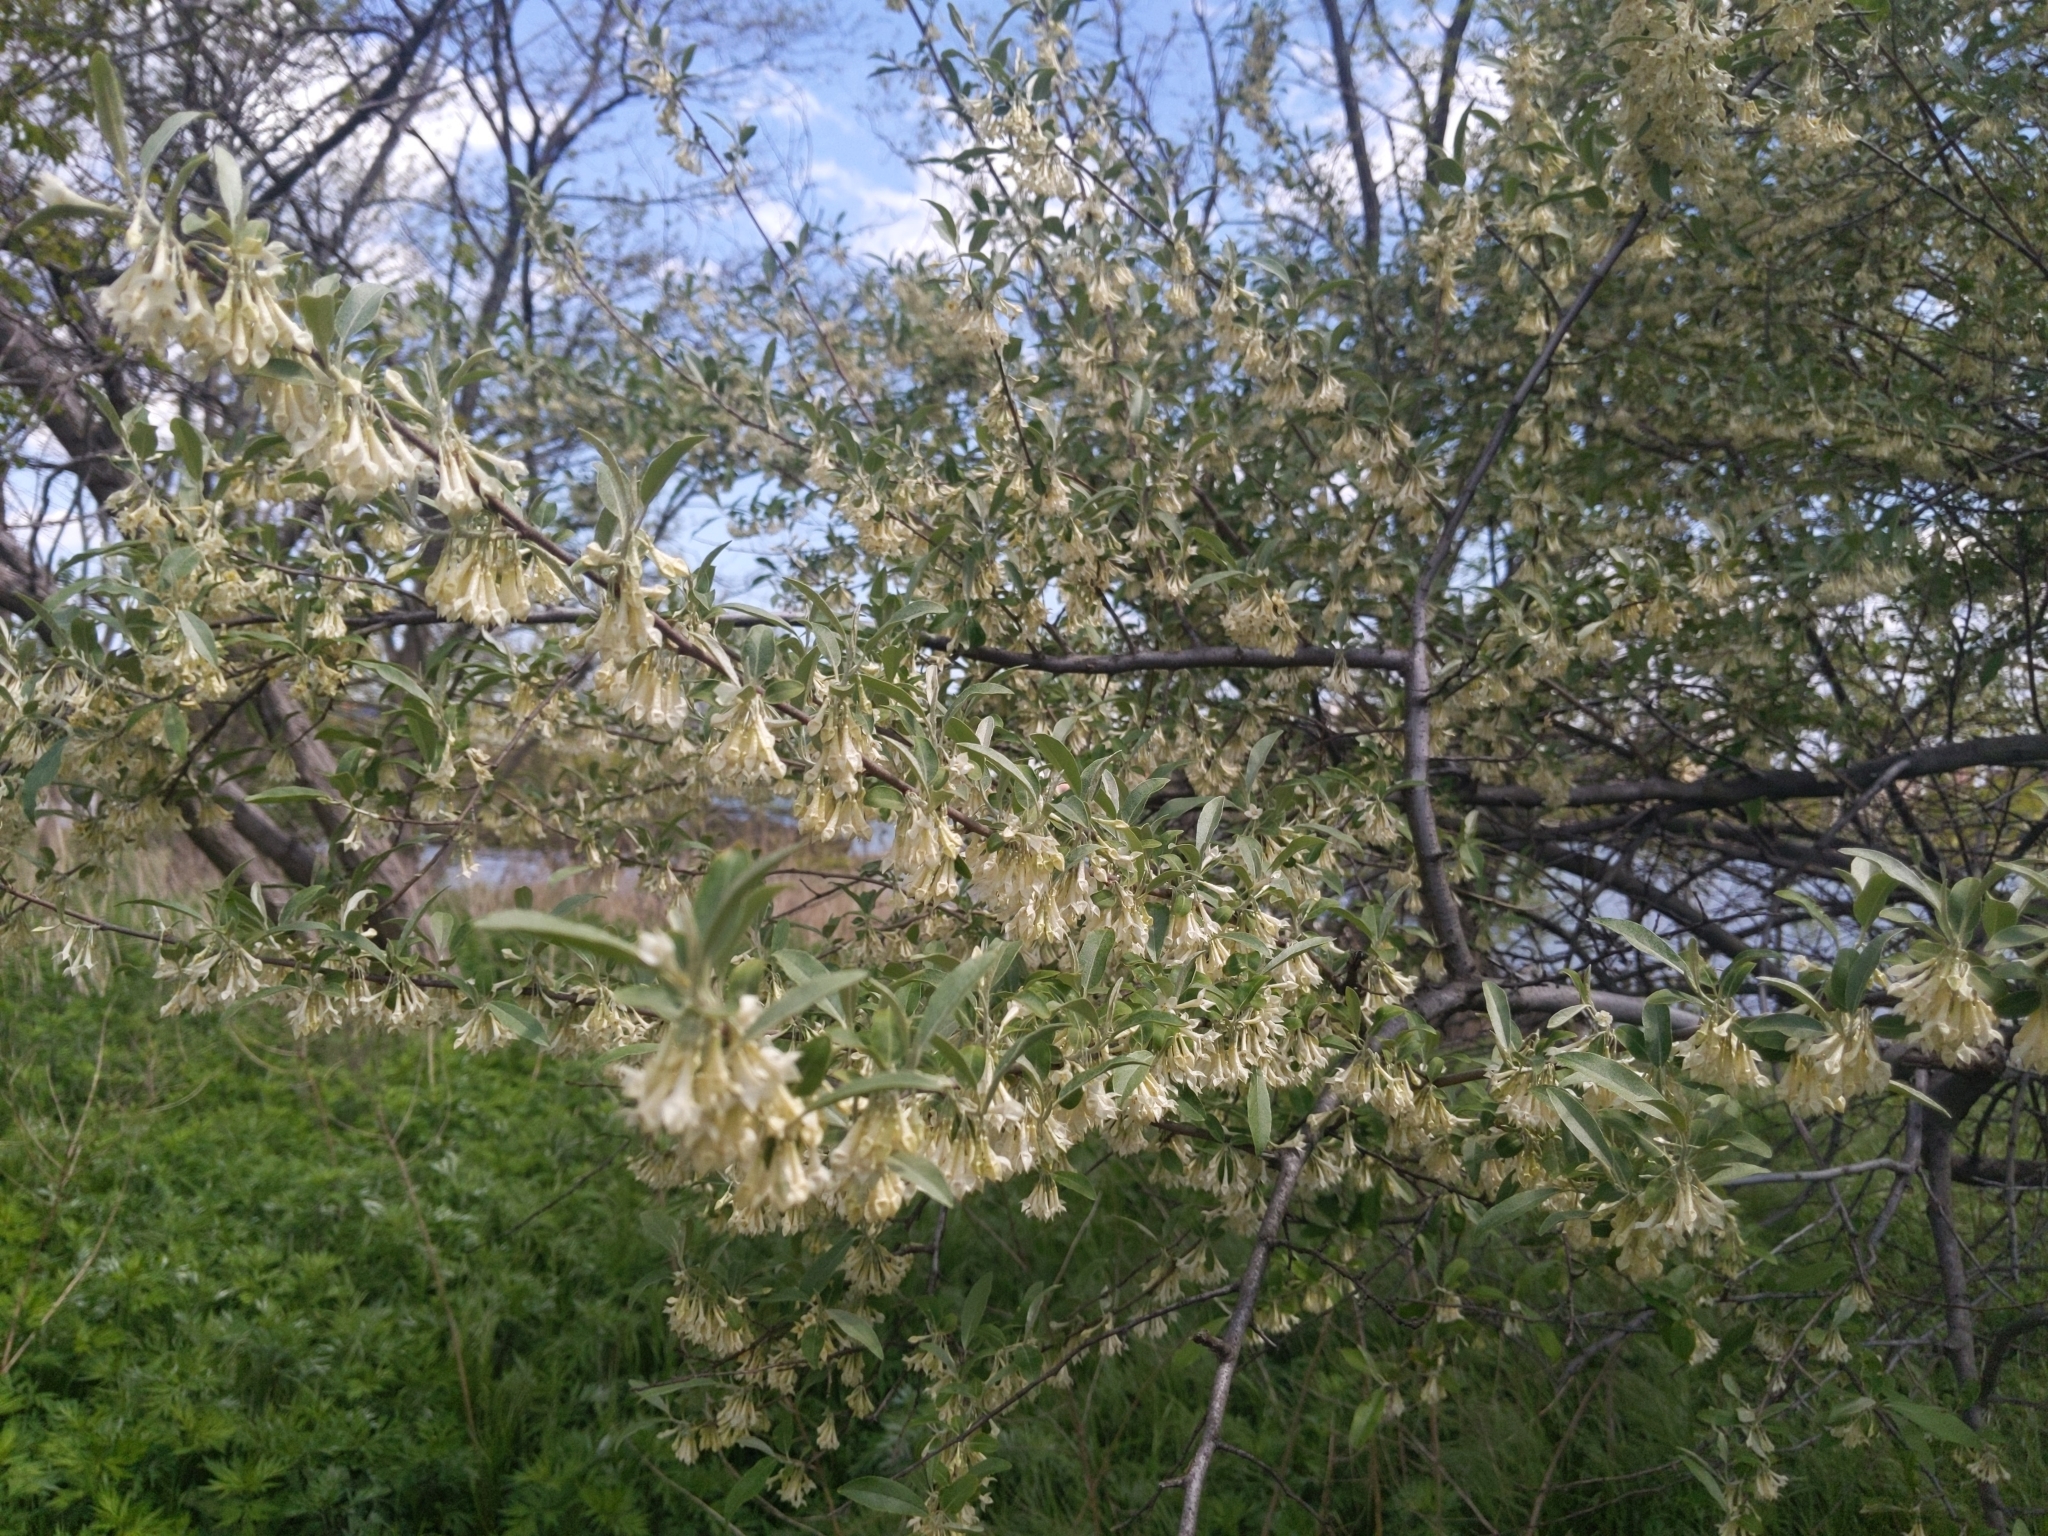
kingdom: Plantae
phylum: Tracheophyta
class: Magnoliopsida
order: Rosales
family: Elaeagnaceae
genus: Elaeagnus
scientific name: Elaeagnus umbellata
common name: Autumn olive
